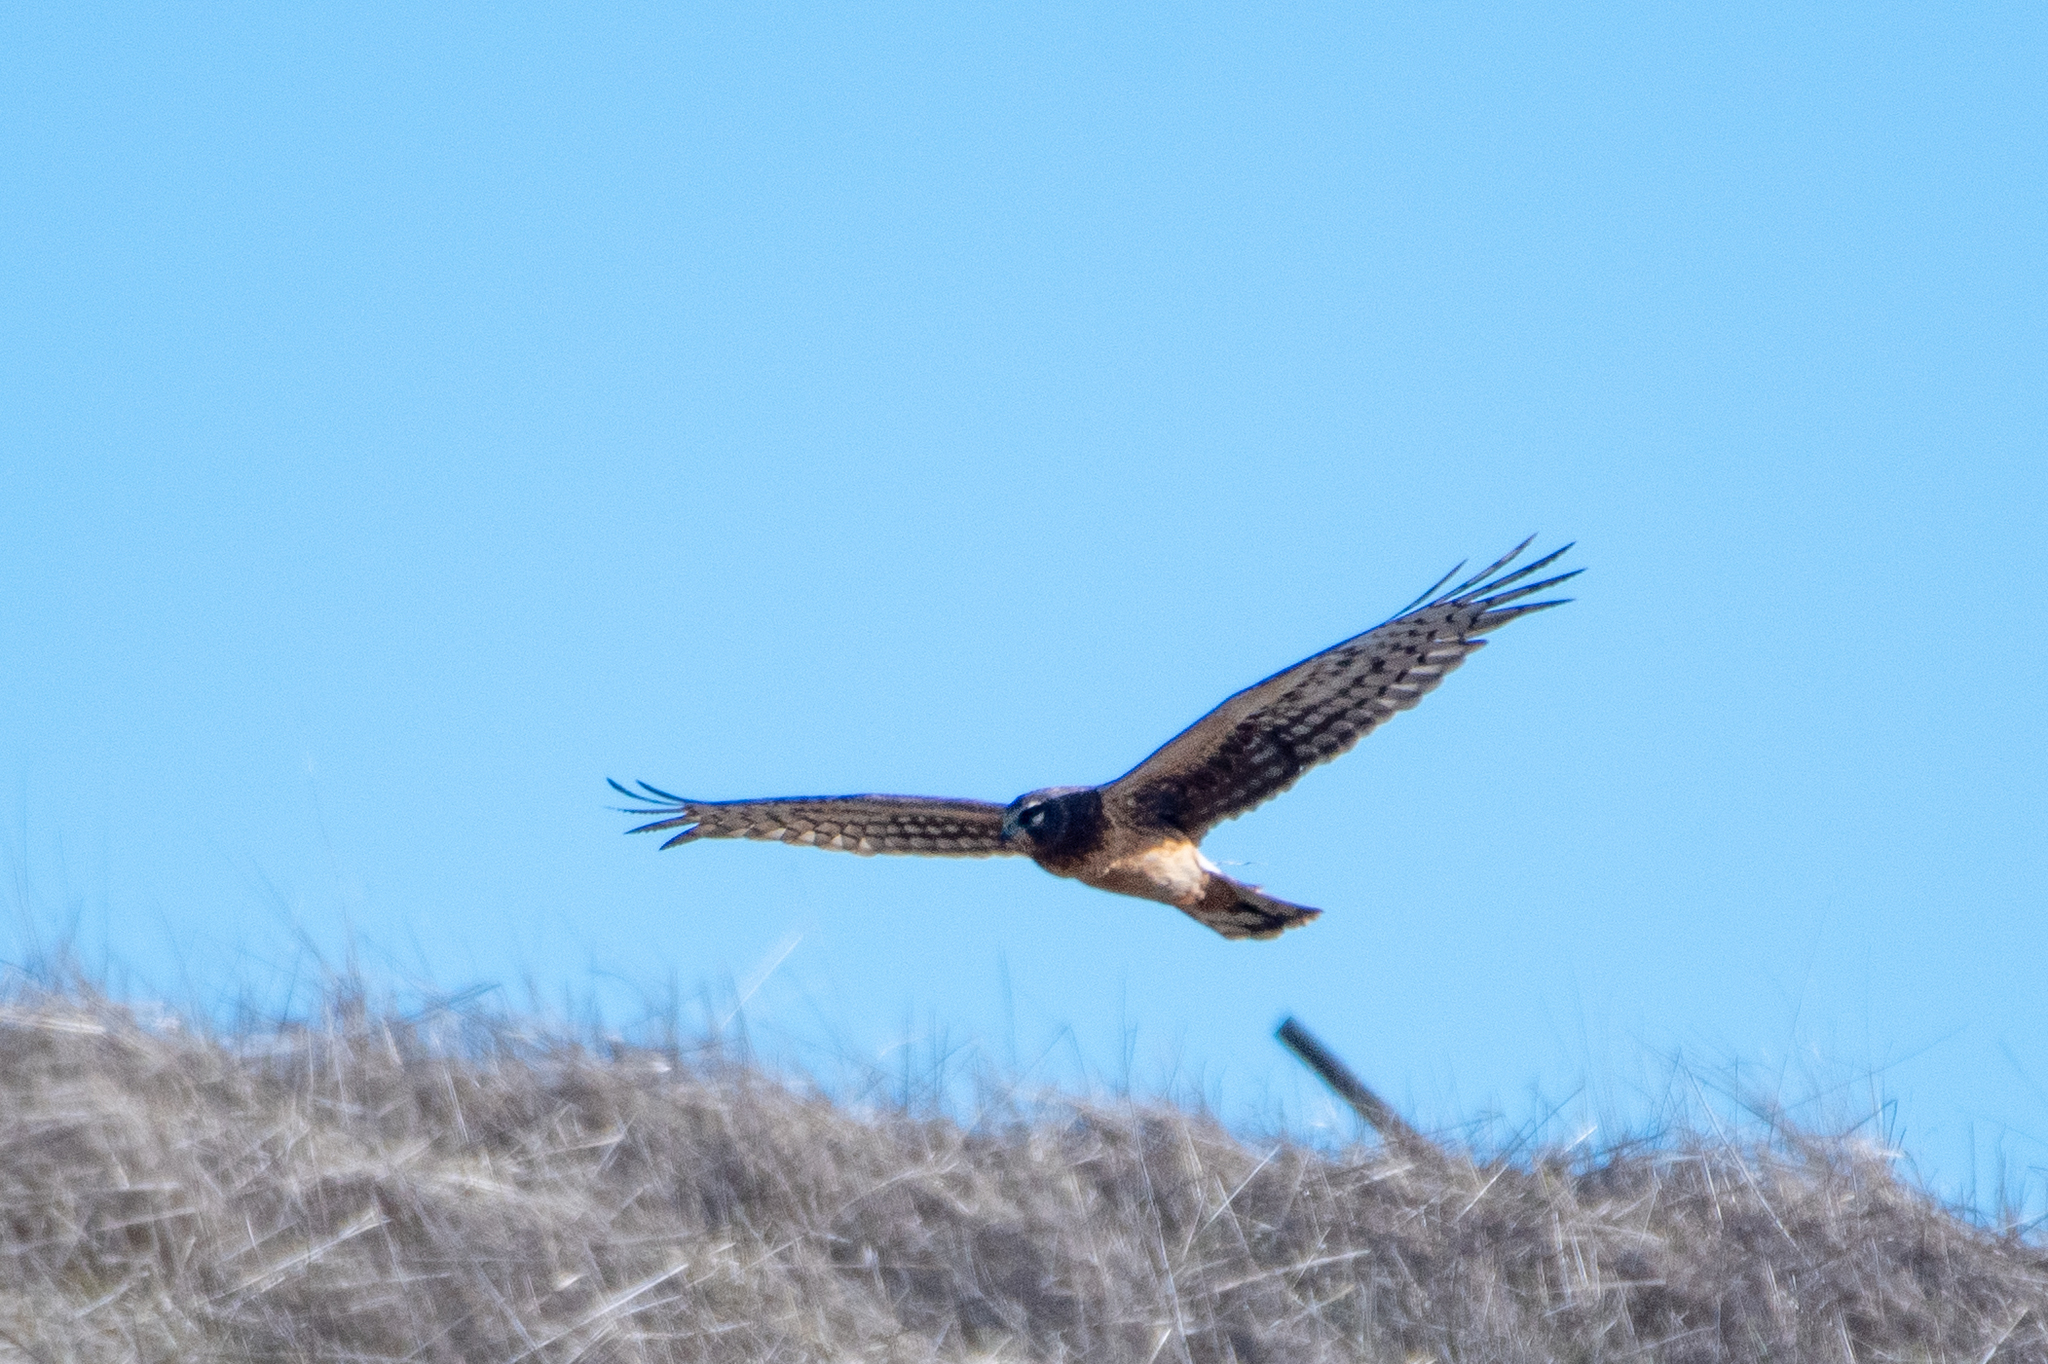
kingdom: Animalia
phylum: Chordata
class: Aves
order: Accipitriformes
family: Accipitridae
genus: Circus
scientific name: Circus cyaneus
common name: Hen harrier
